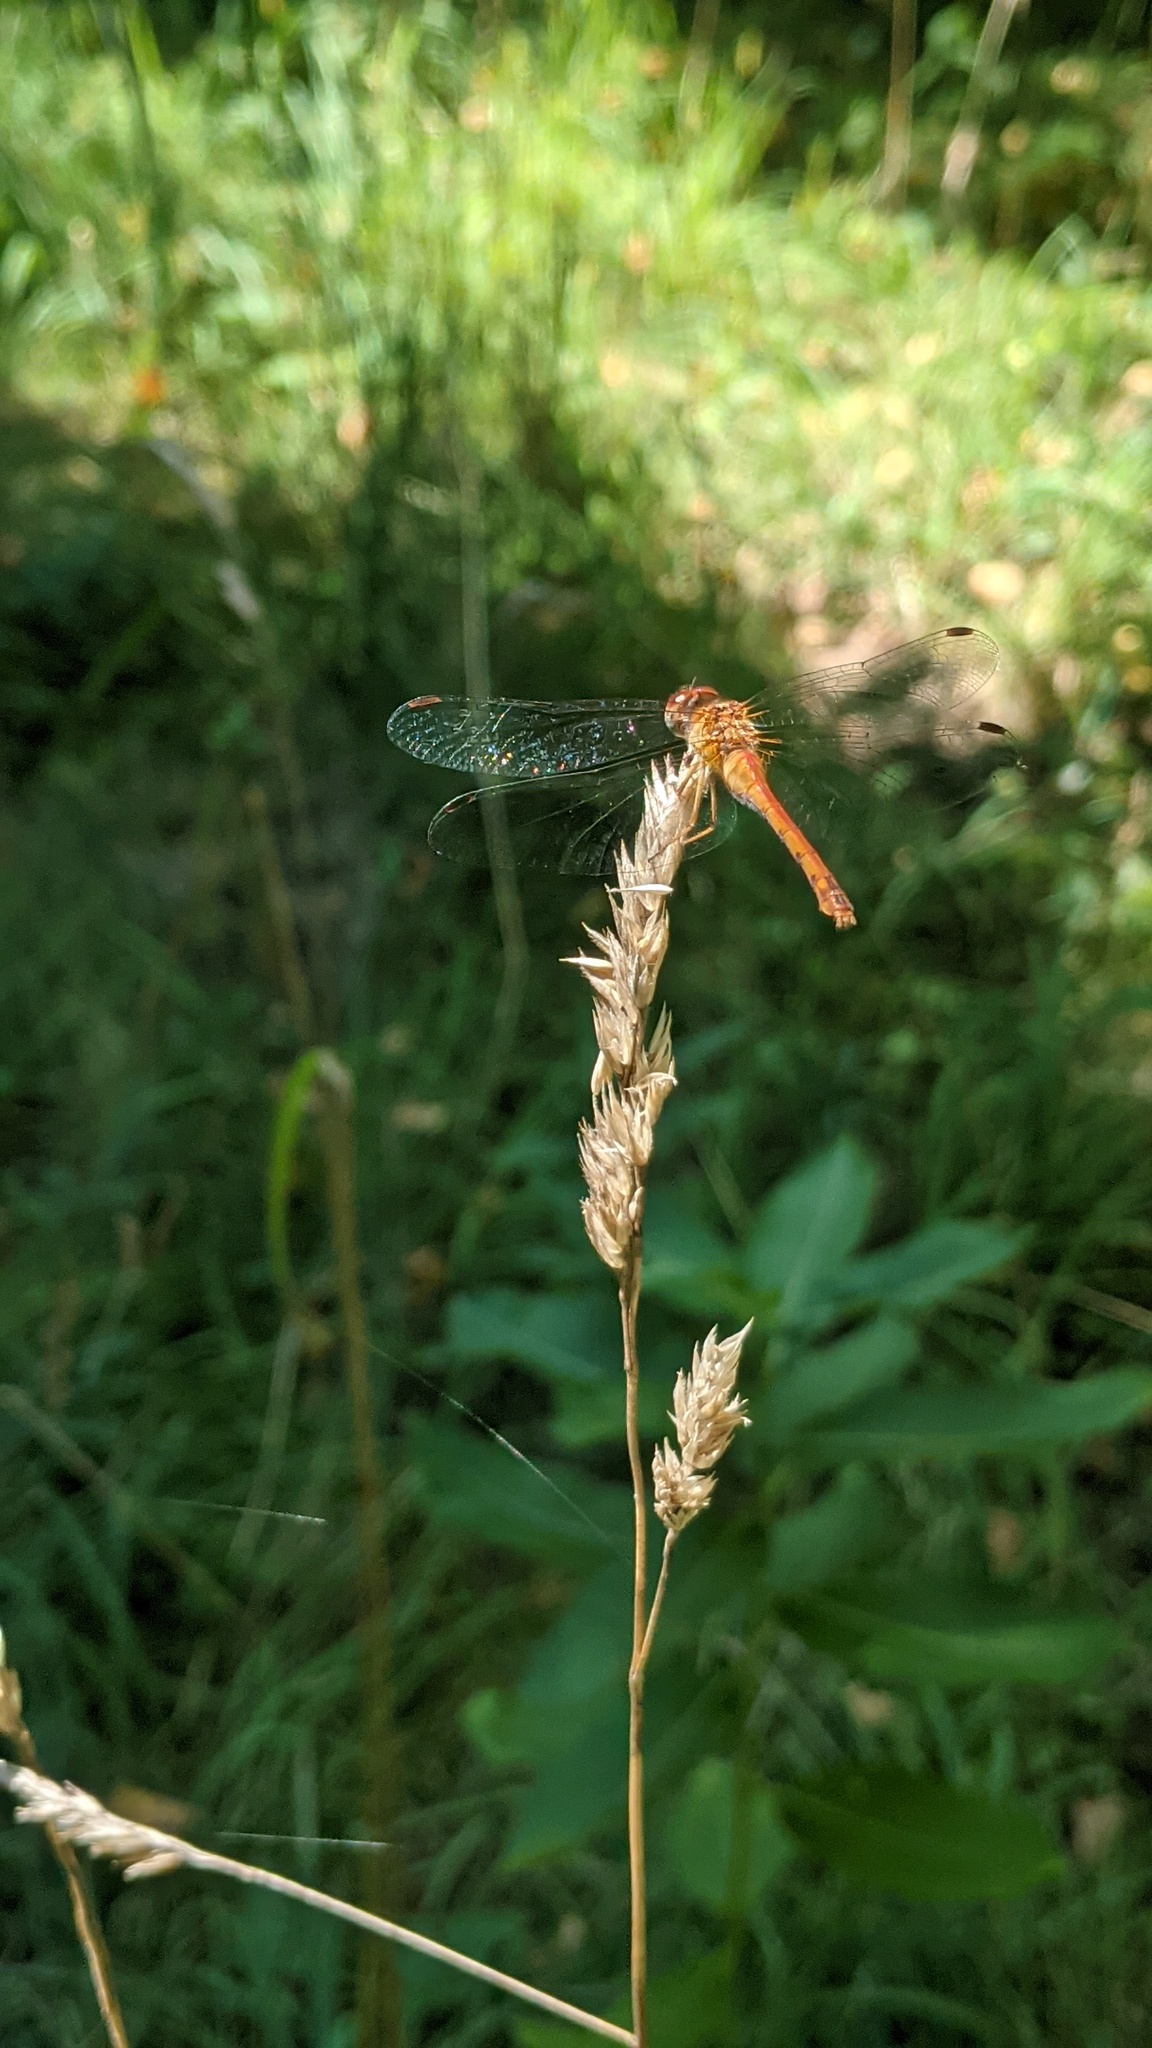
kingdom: Plantae
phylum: Tracheophyta
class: Liliopsida
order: Poales
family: Poaceae
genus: Dactylis
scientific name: Dactylis glomerata
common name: Orchardgrass
